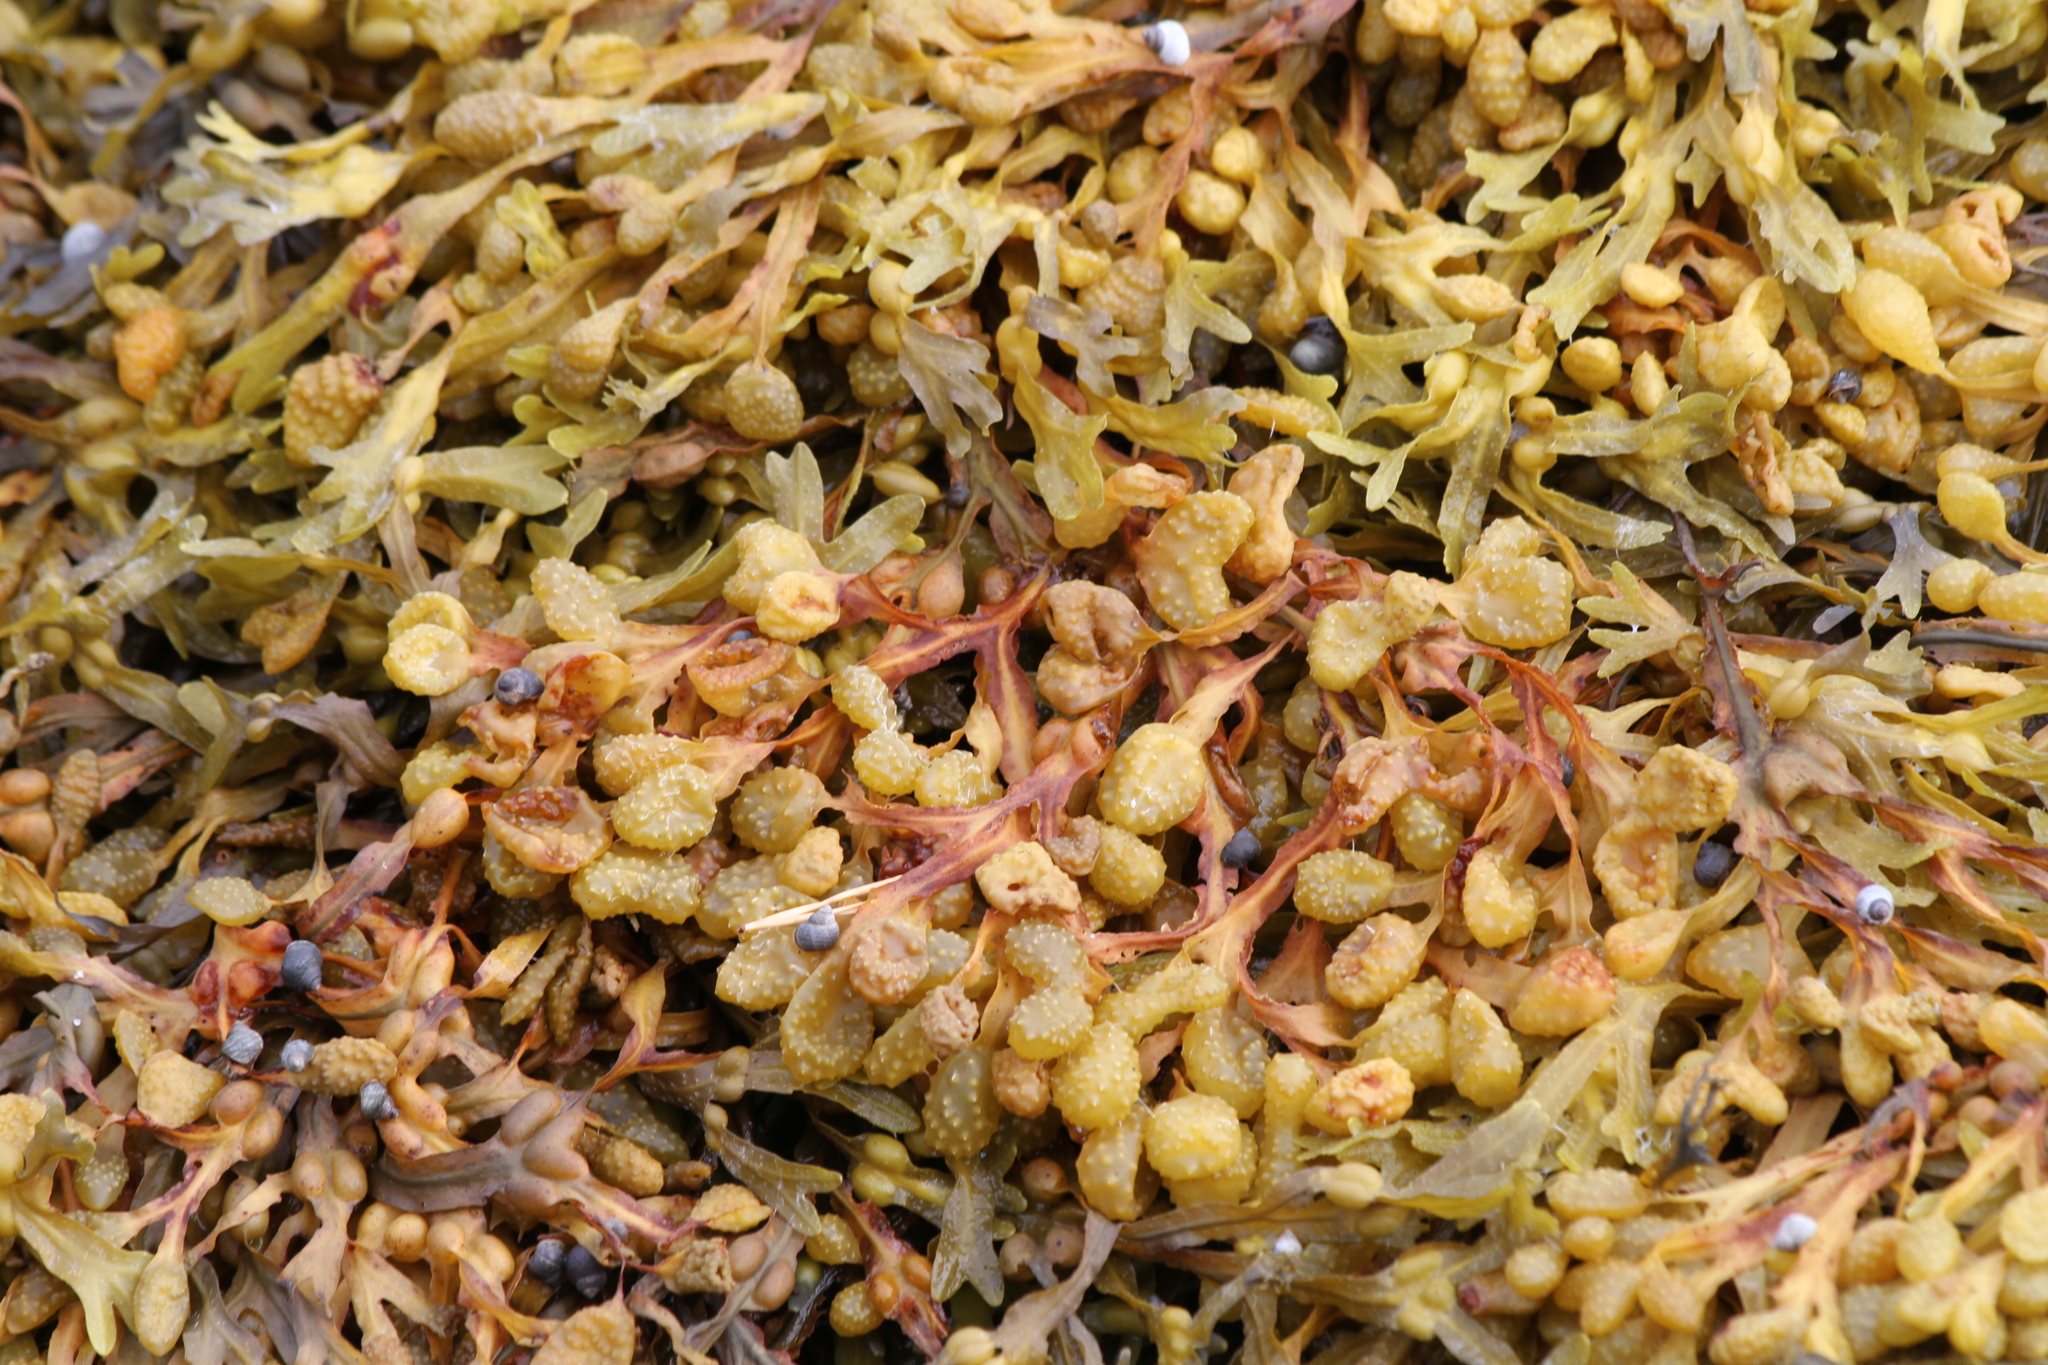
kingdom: Chromista
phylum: Ochrophyta
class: Phaeophyceae
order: Fucales
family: Fucaceae
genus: Fucus
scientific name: Fucus vesiculosus
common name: Bladder wrack
